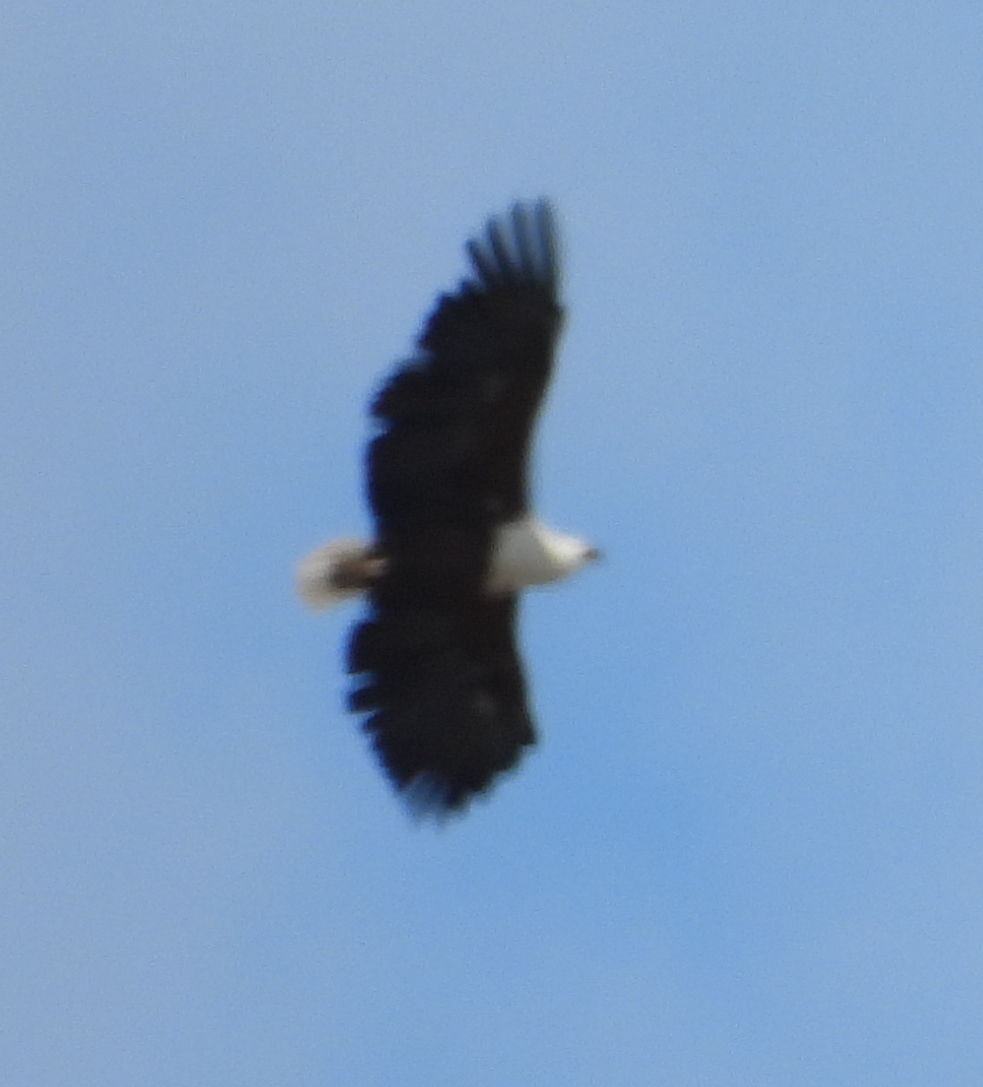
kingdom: Animalia
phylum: Chordata
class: Aves
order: Accipitriformes
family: Accipitridae
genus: Haliaeetus
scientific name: Haliaeetus vocifer
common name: African fish eagle
